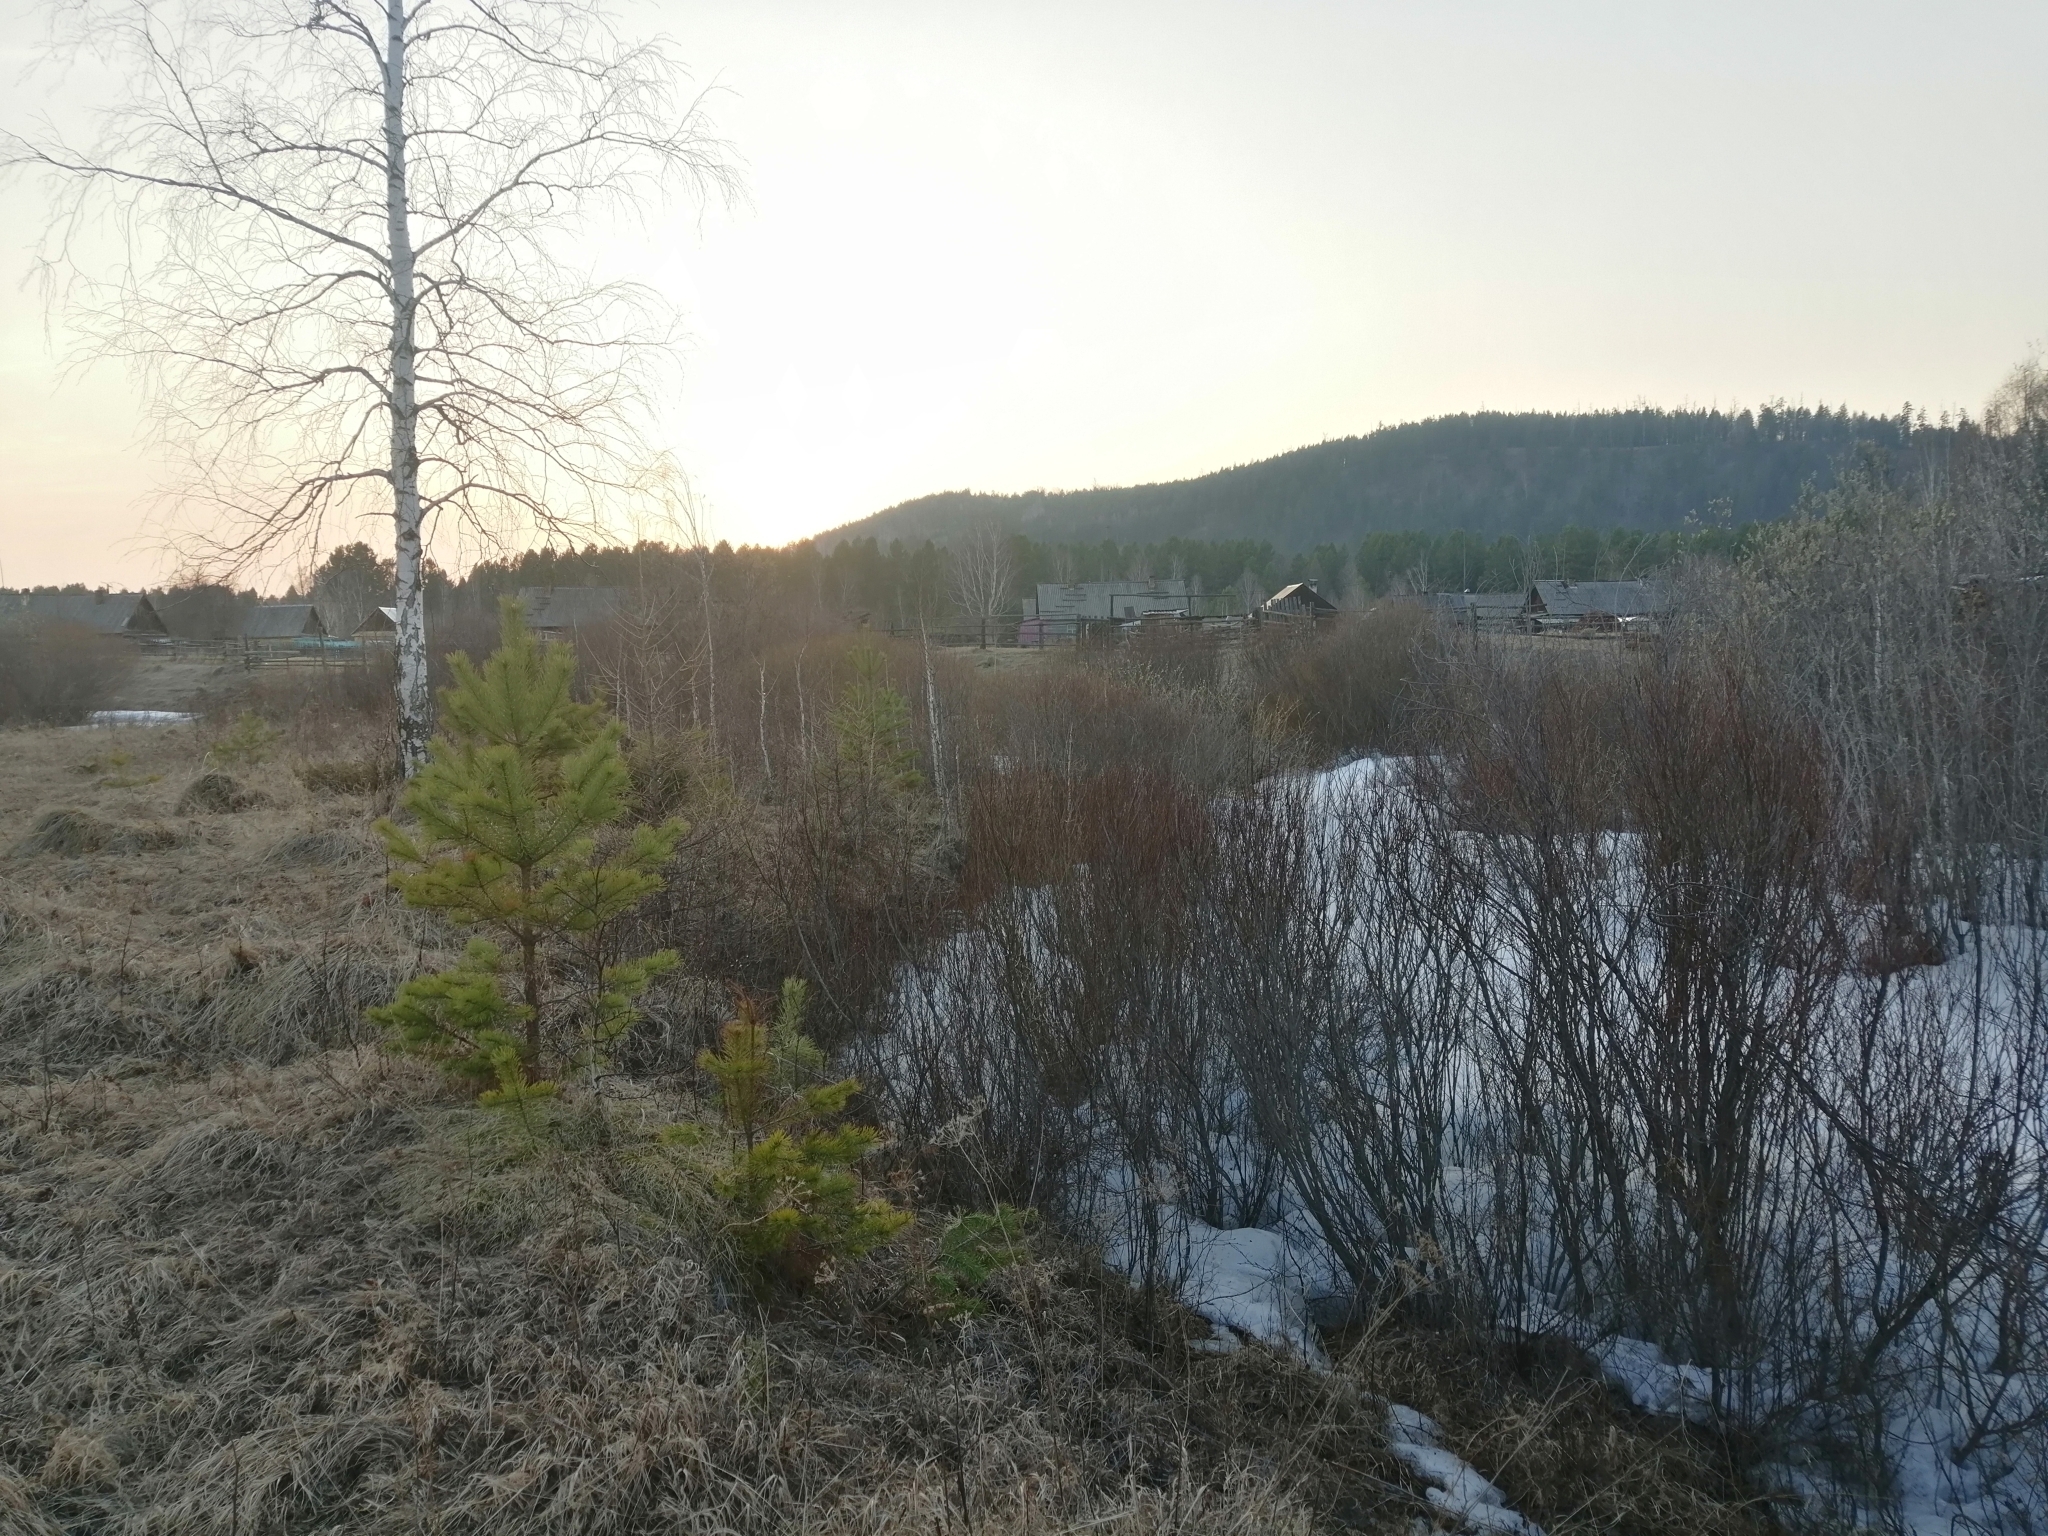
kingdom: Plantae
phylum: Tracheophyta
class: Pinopsida
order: Pinales
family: Pinaceae
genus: Pinus
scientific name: Pinus sylvestris
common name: Scots pine
